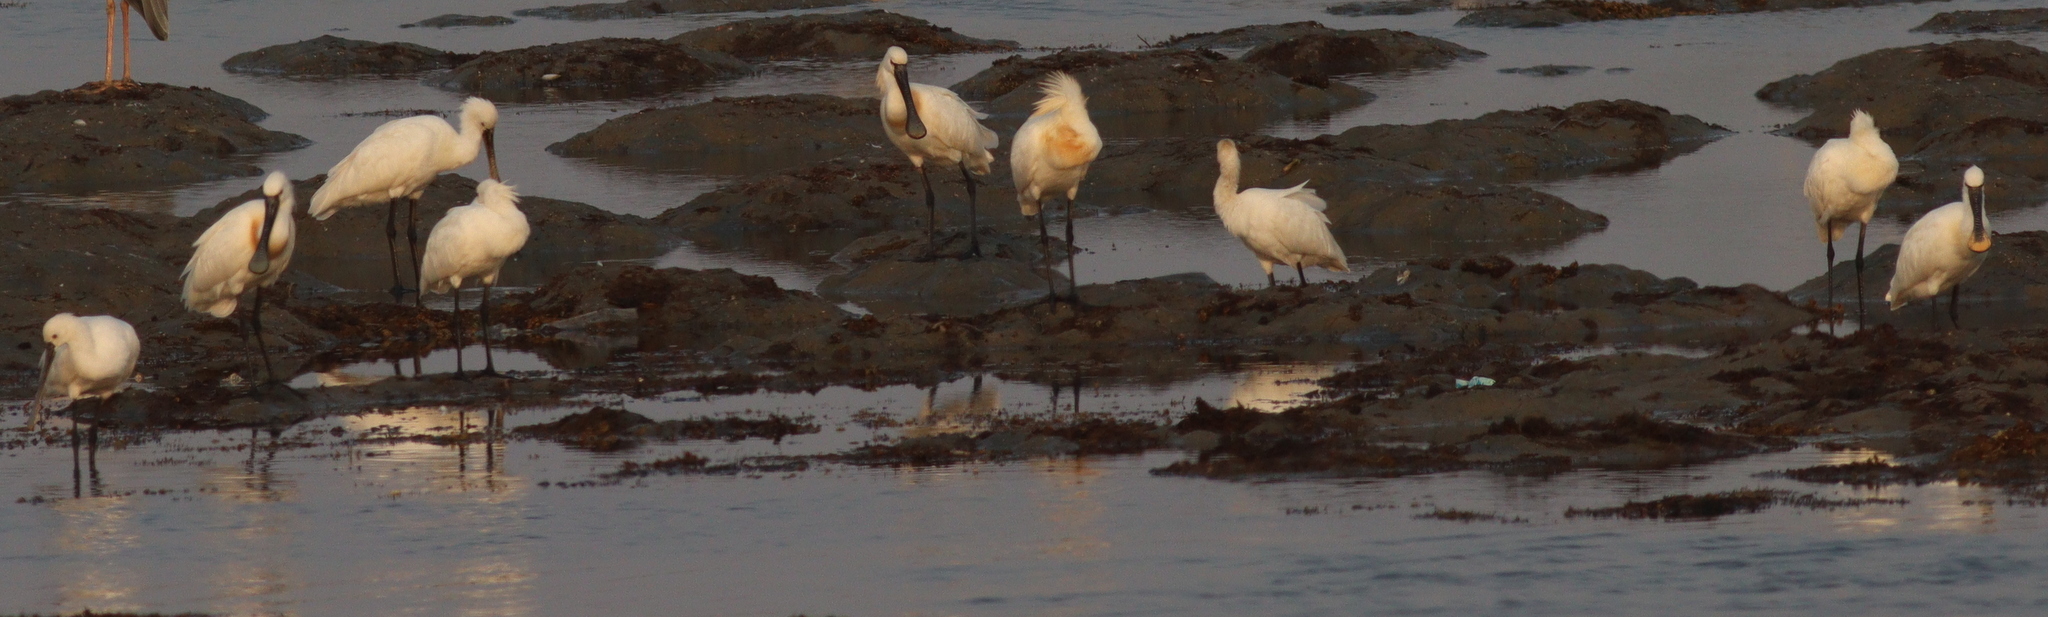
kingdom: Animalia
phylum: Chordata
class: Aves
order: Pelecaniformes
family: Threskiornithidae
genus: Platalea
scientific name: Platalea leucorodia
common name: Eurasian spoonbill
